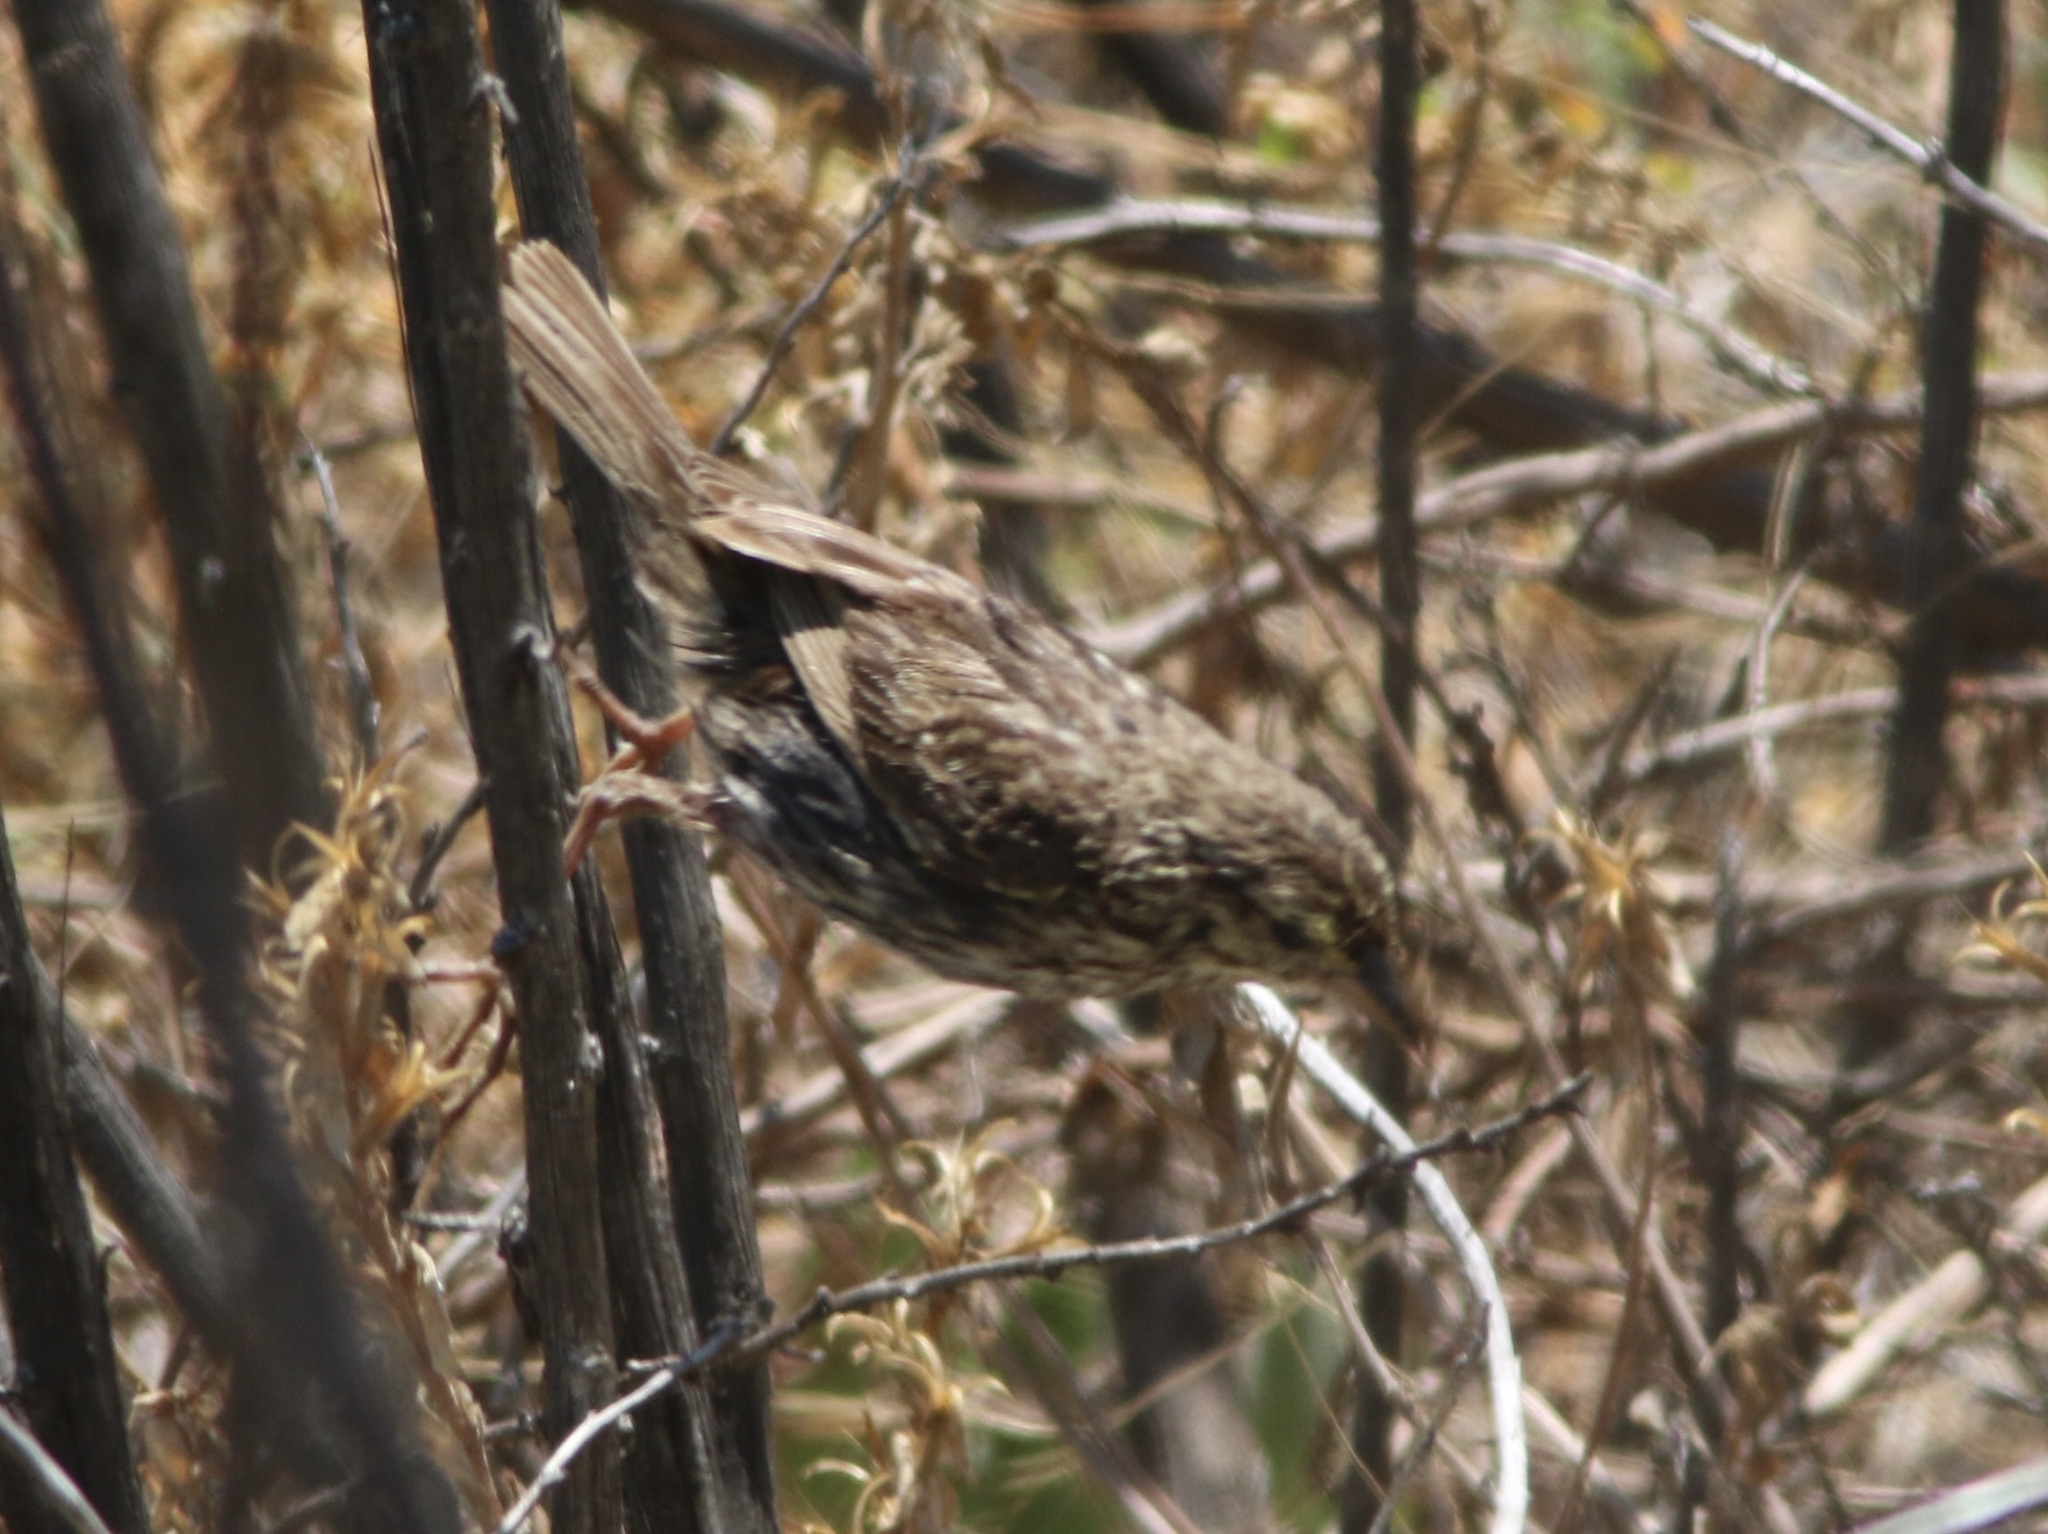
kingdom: Animalia
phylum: Chordata
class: Aves
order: Passeriformes
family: Passerellidae
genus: Passerculus
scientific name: Passerculus sandwichensis
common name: Savannah sparrow
